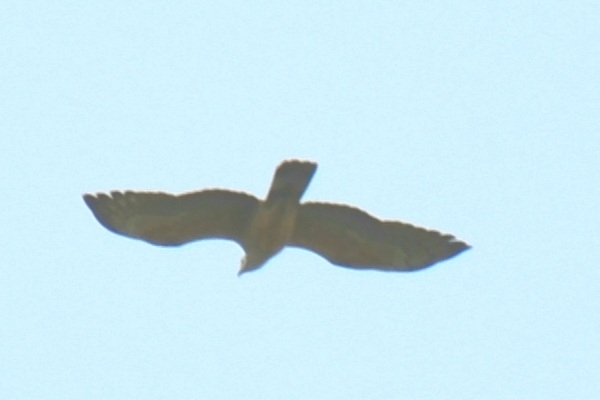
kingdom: Animalia
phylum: Chordata
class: Aves
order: Accipitriformes
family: Accipitridae
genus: Circus
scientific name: Circus aeruginosus
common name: Western marsh harrier
